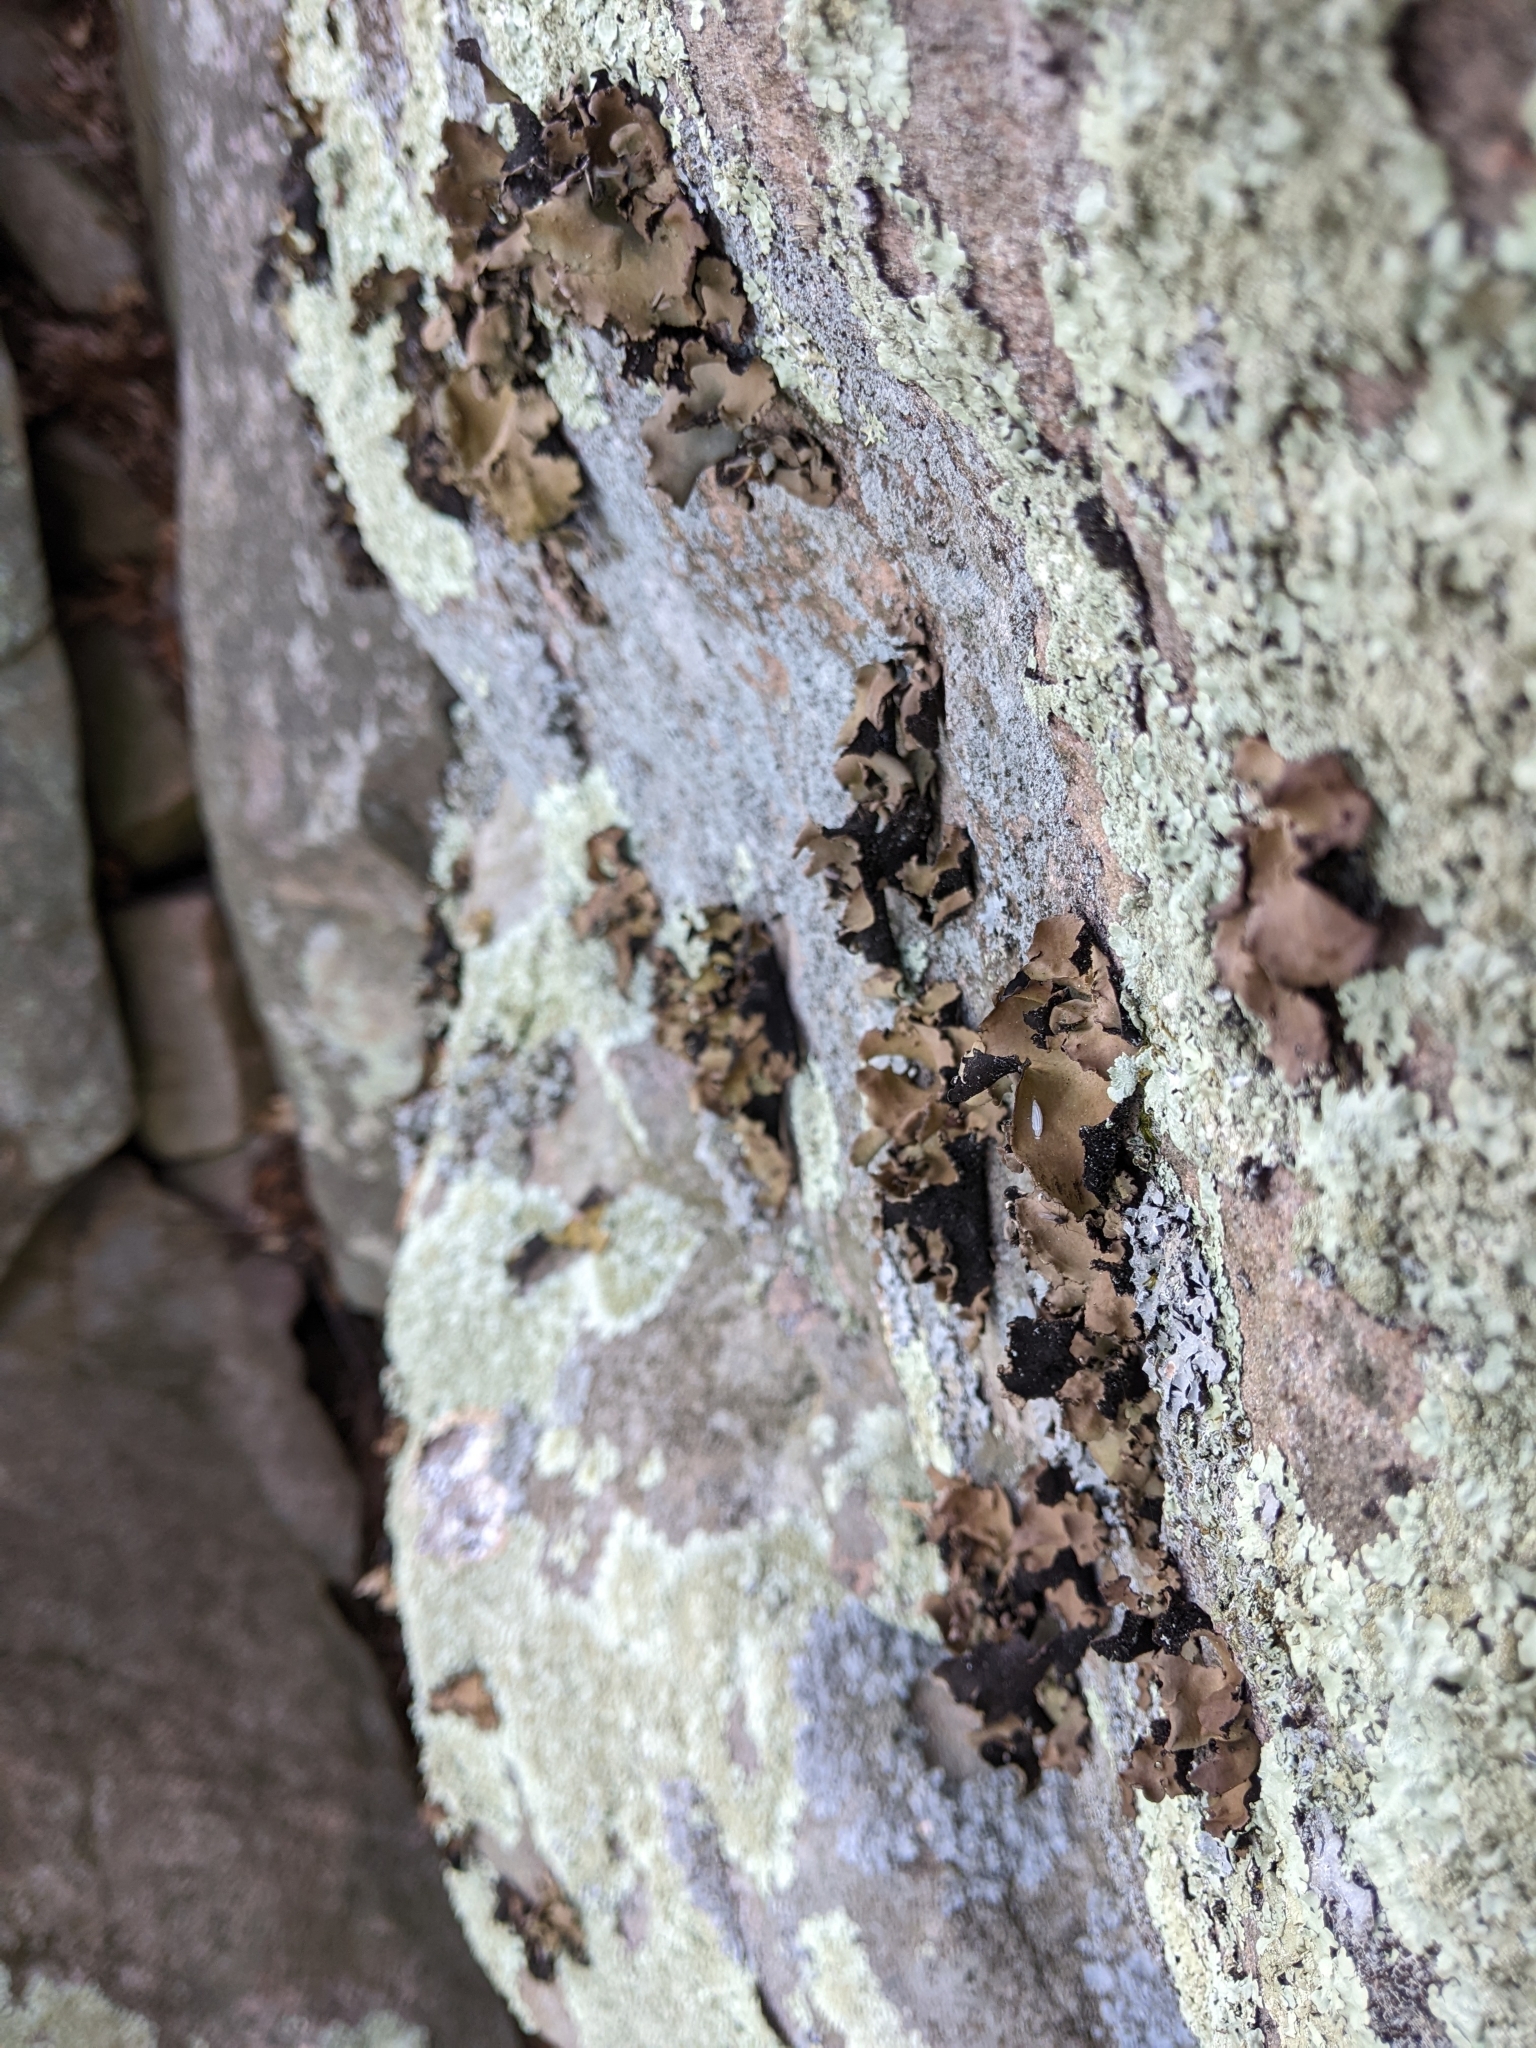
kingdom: Fungi
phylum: Ascomycota
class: Lecanoromycetes
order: Umbilicariales
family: Umbilicariaceae
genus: Umbilicaria
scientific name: Umbilicaria mammulata
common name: Smooth rock tripe
